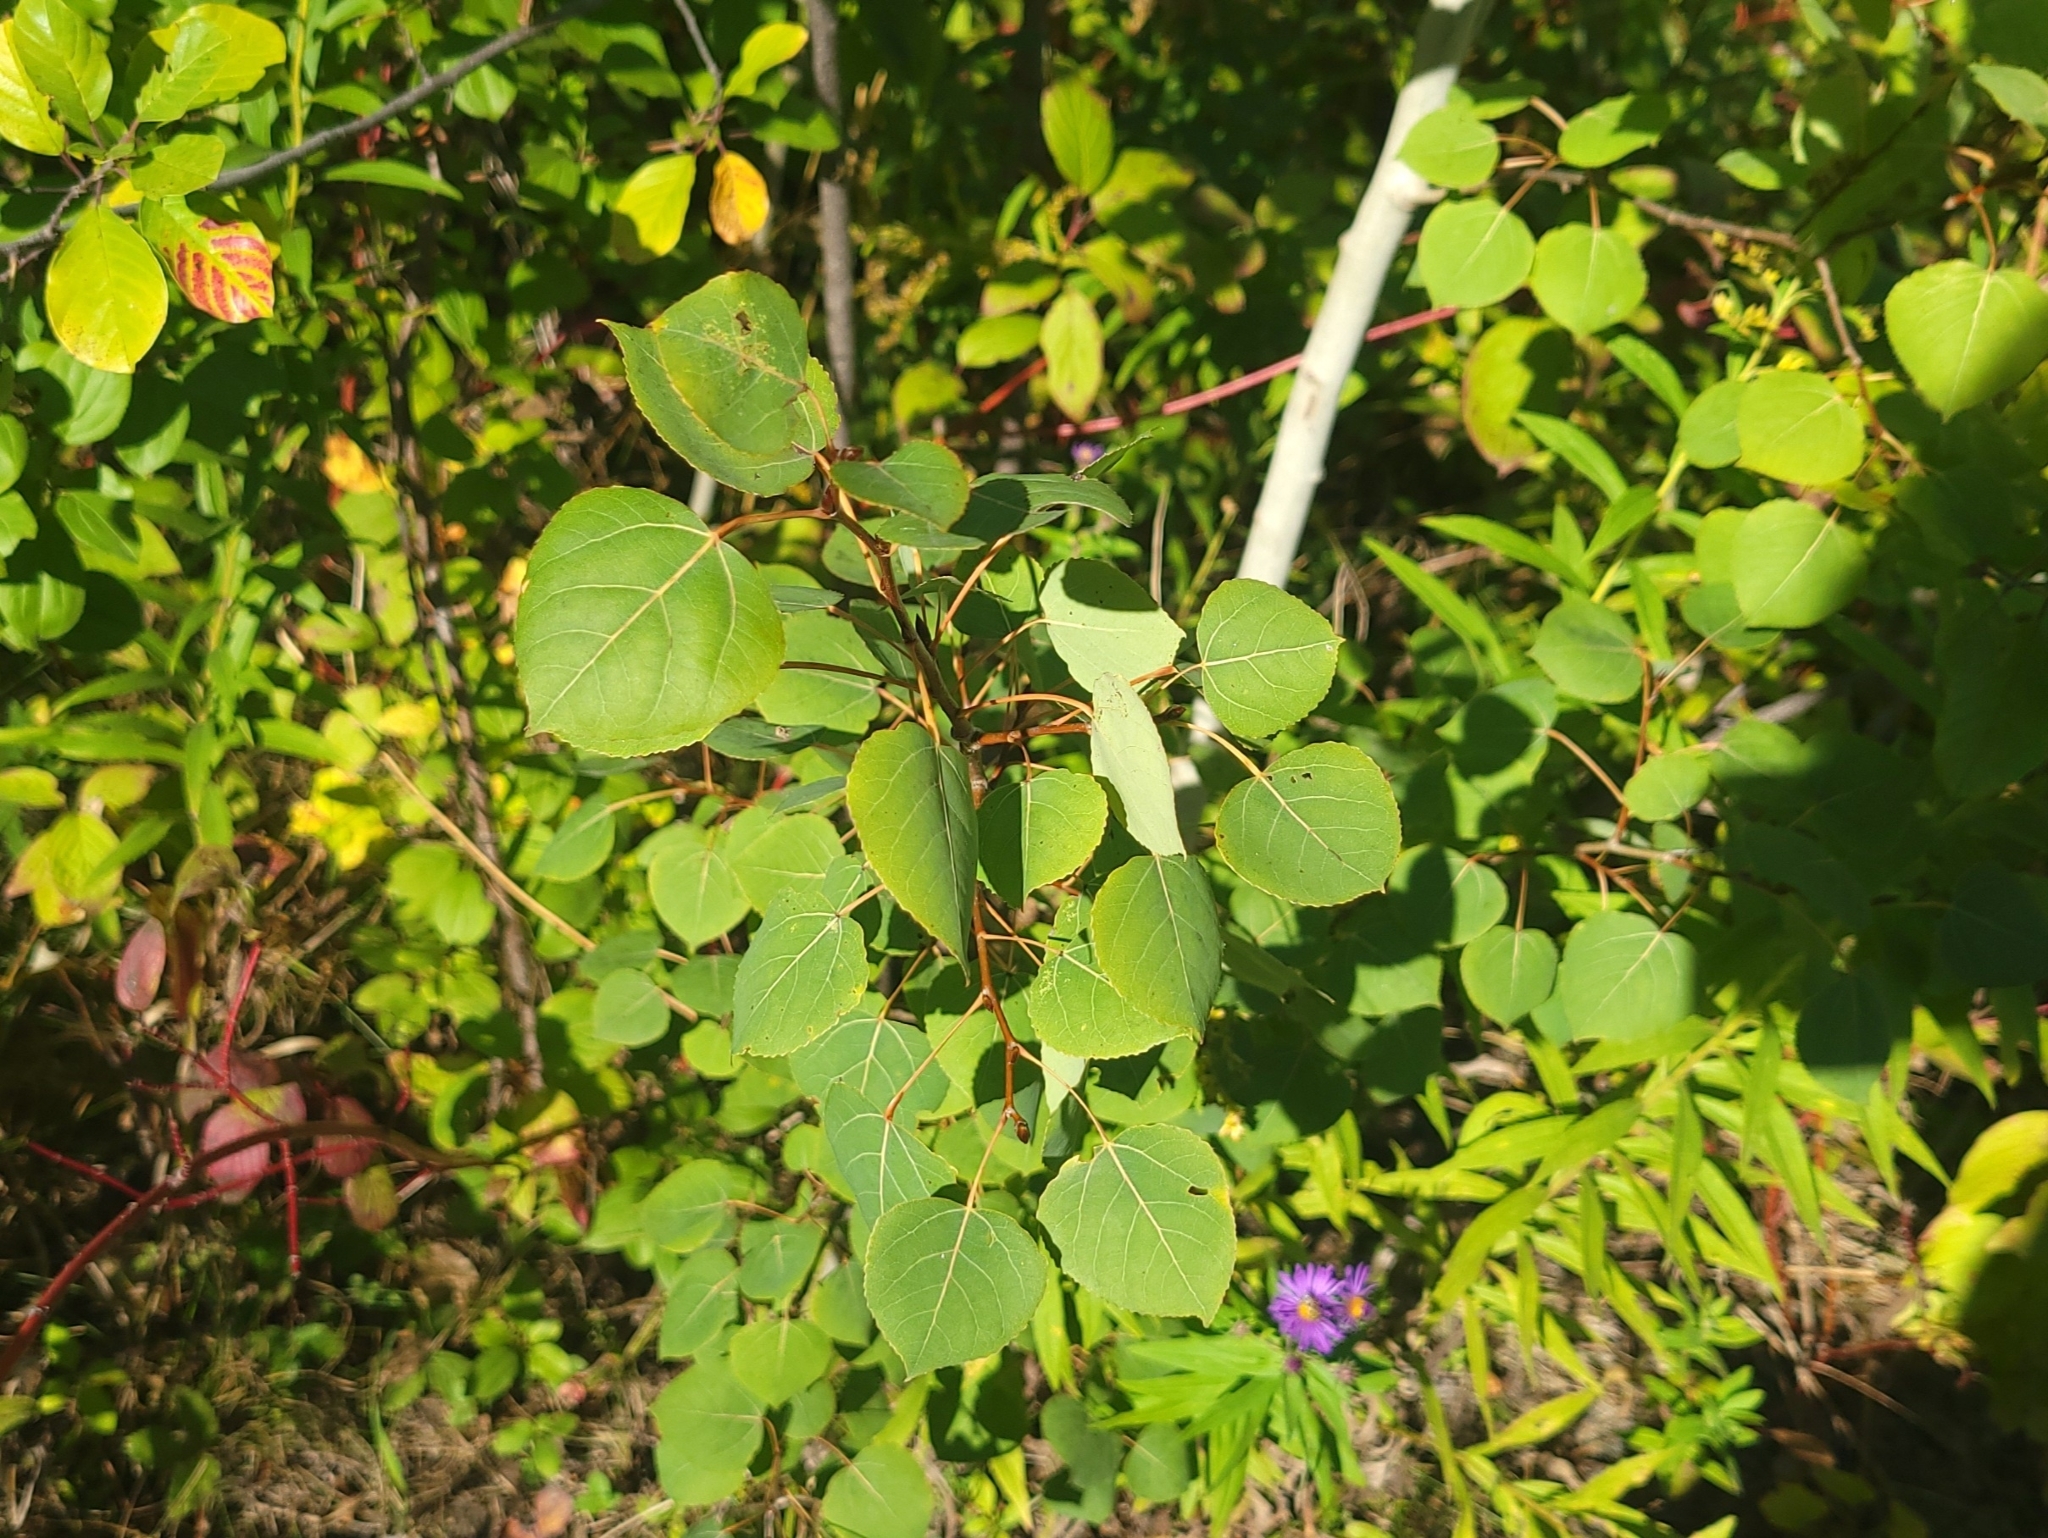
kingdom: Plantae
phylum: Tracheophyta
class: Magnoliopsida
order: Malpighiales
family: Salicaceae
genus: Populus
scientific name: Populus tremuloides
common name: Quaking aspen
